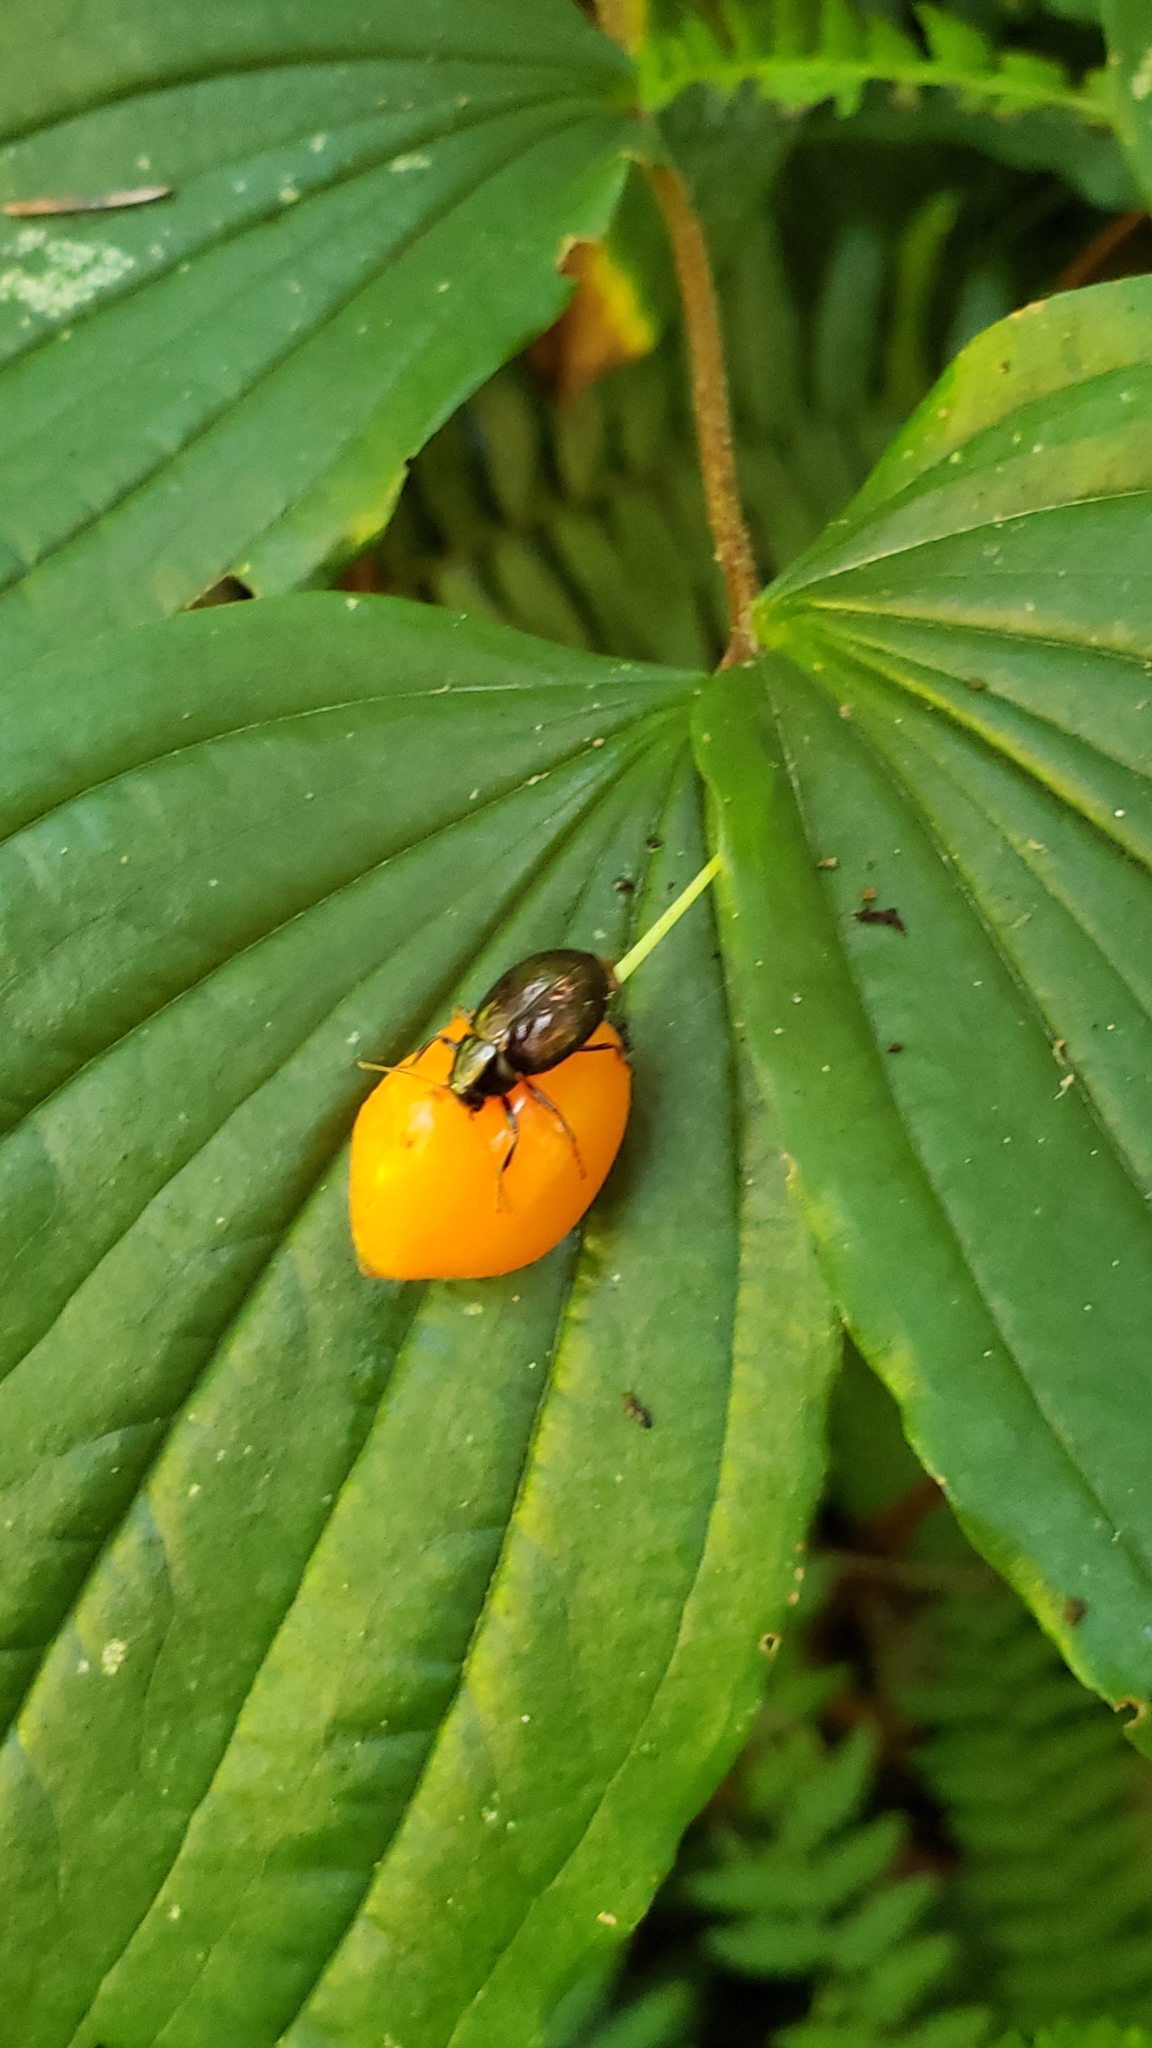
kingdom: Plantae
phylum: Tracheophyta
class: Liliopsida
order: Liliales
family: Liliaceae
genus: Prosartes
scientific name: Prosartes smithii
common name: Fairy-lantern
